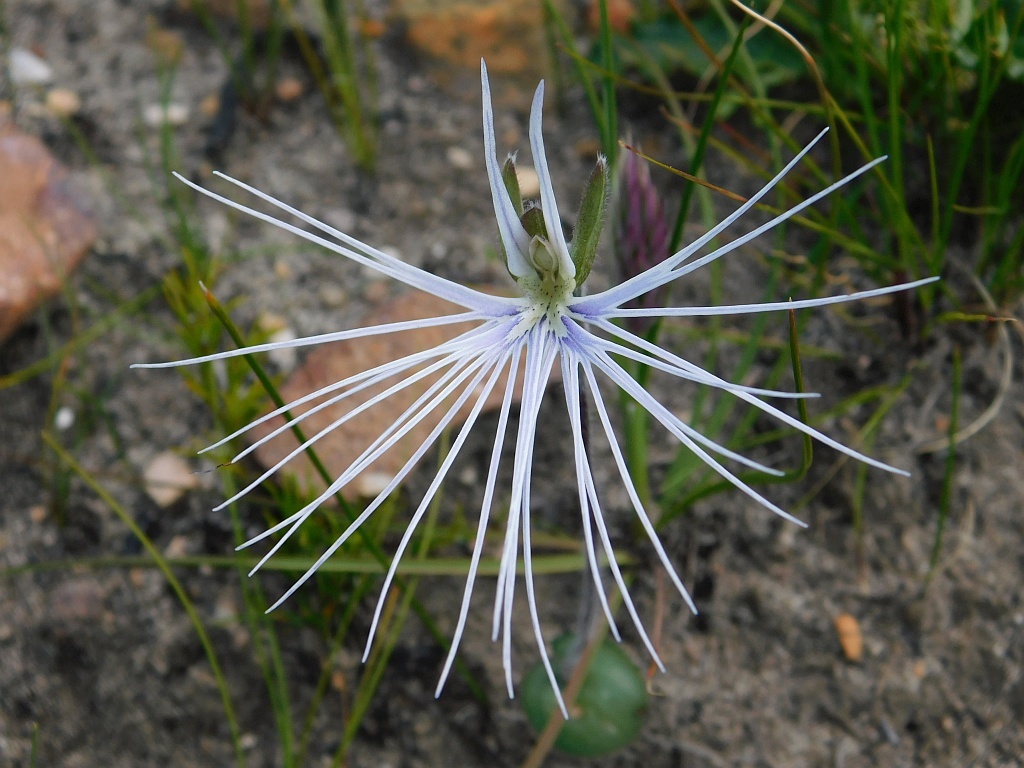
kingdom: Plantae
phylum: Tracheophyta
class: Liliopsida
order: Asparagales
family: Orchidaceae
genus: Holothrix
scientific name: Holothrix burmanniana
